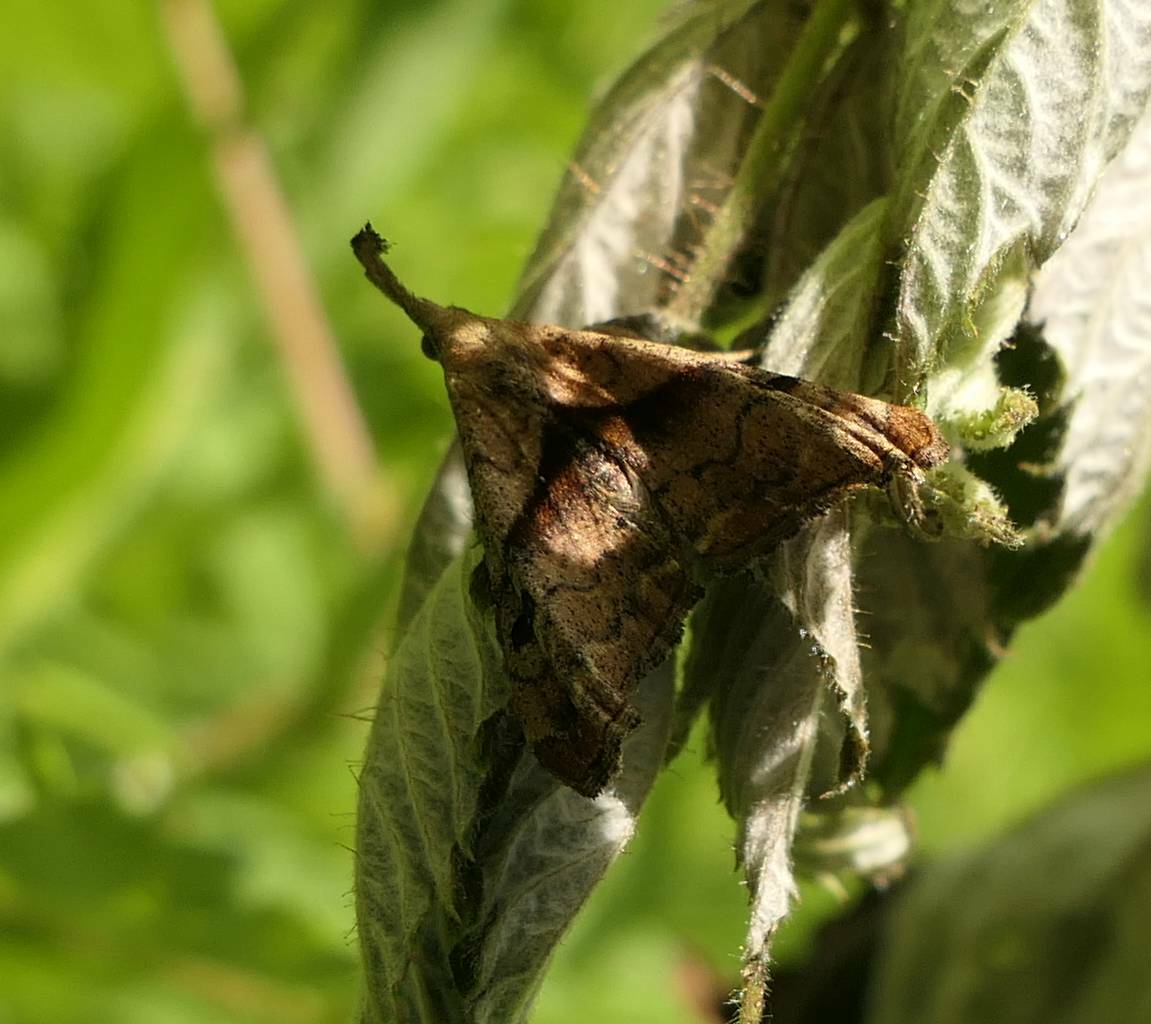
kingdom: Animalia
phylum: Arthropoda
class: Insecta
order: Lepidoptera
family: Erebidae
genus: Palthis
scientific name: Palthis angulalis
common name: Dark-spotted palthis moth
